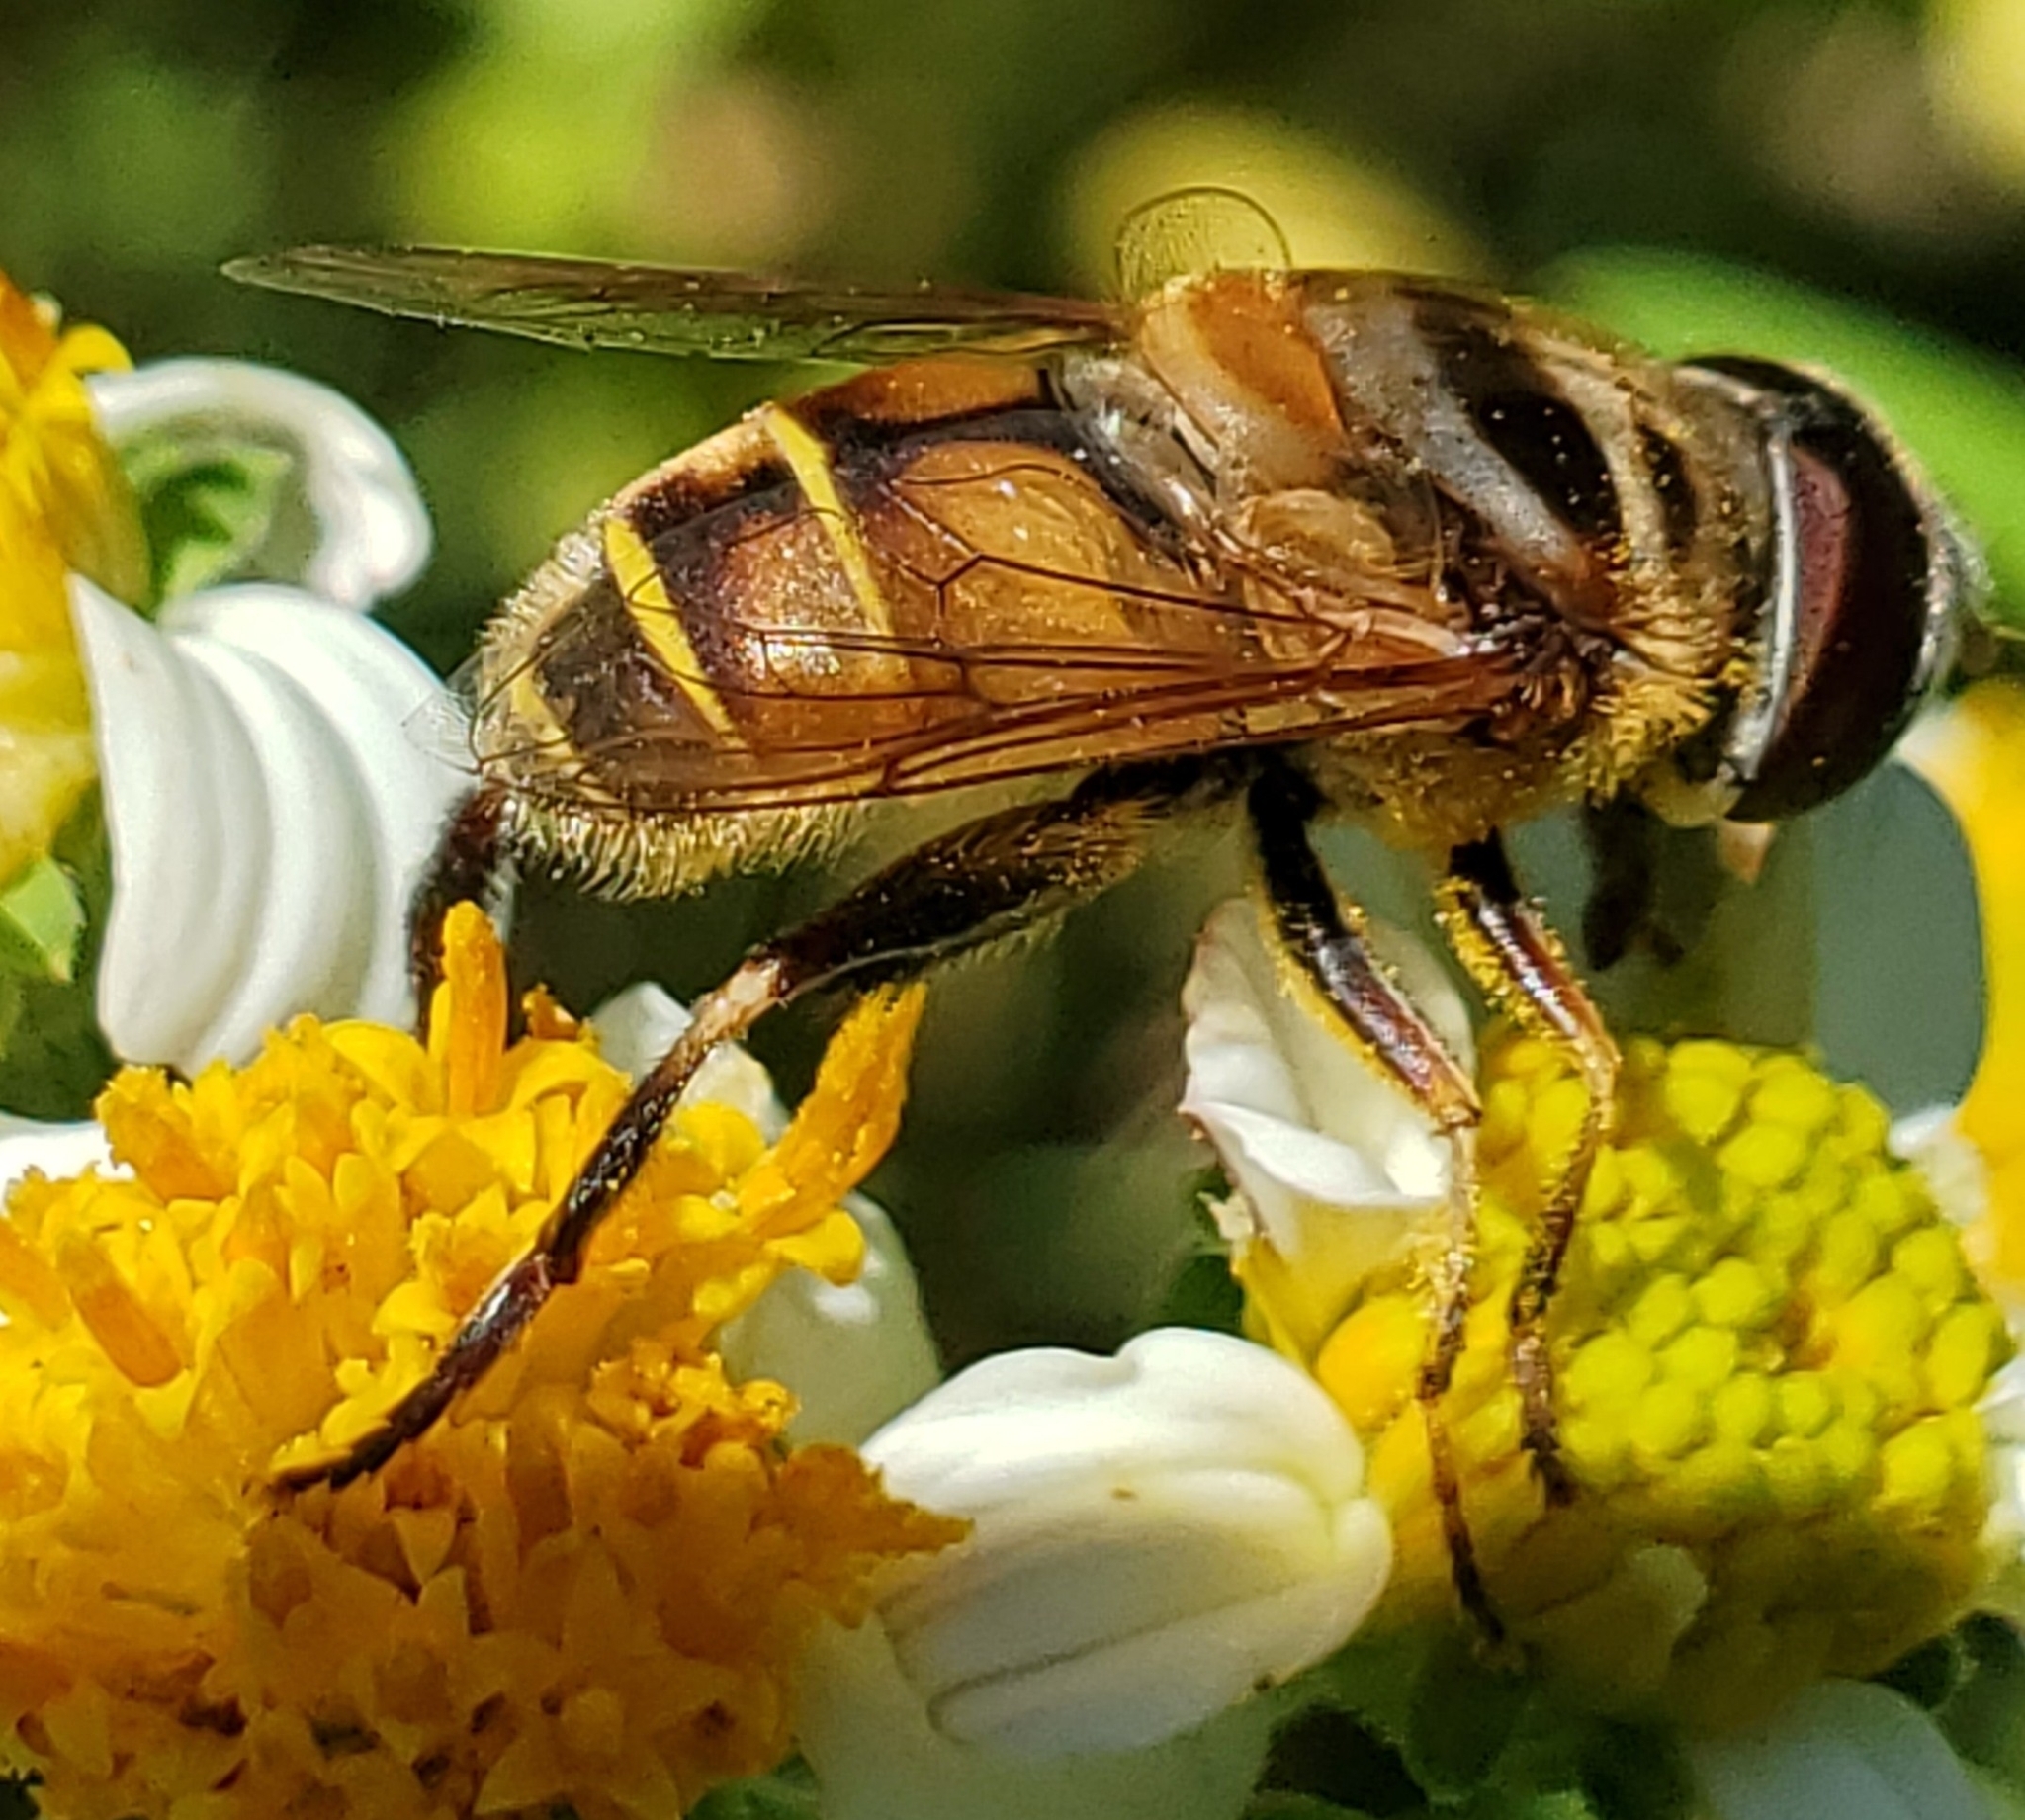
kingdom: Animalia
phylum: Arthropoda
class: Insecta
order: Diptera
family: Syrphidae
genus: Palpada
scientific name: Palpada vinetorum
